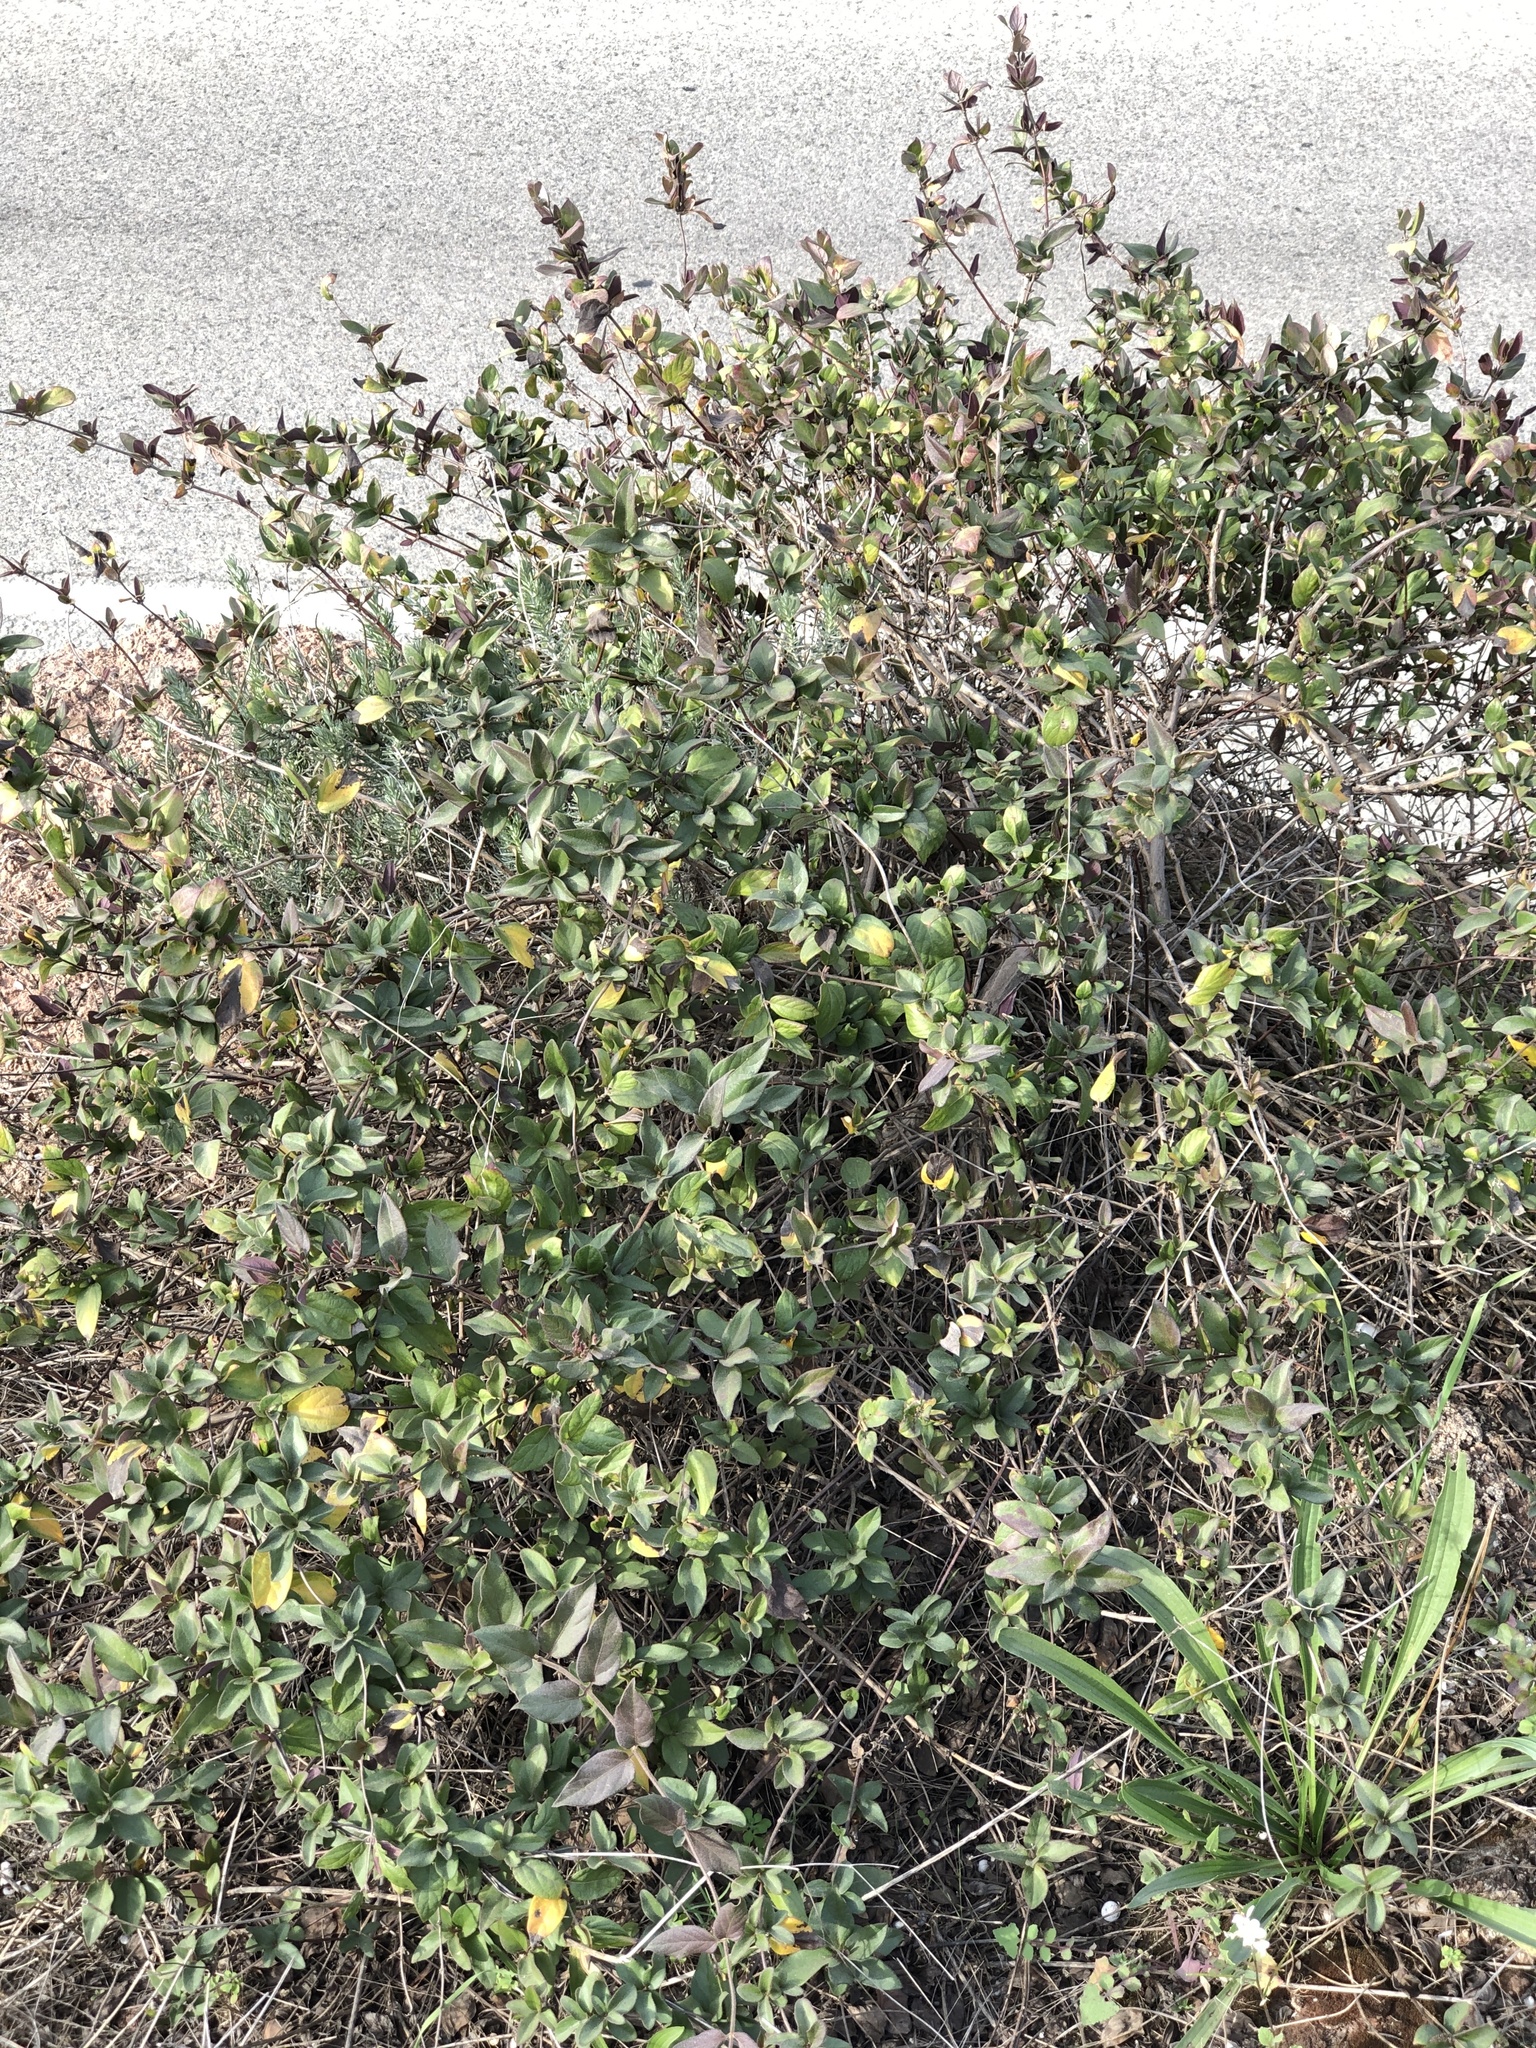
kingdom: Plantae
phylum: Tracheophyta
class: Magnoliopsida
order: Dipsacales
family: Caprifoliaceae
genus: Lonicera
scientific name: Lonicera japonica
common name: Japanese honeysuckle
